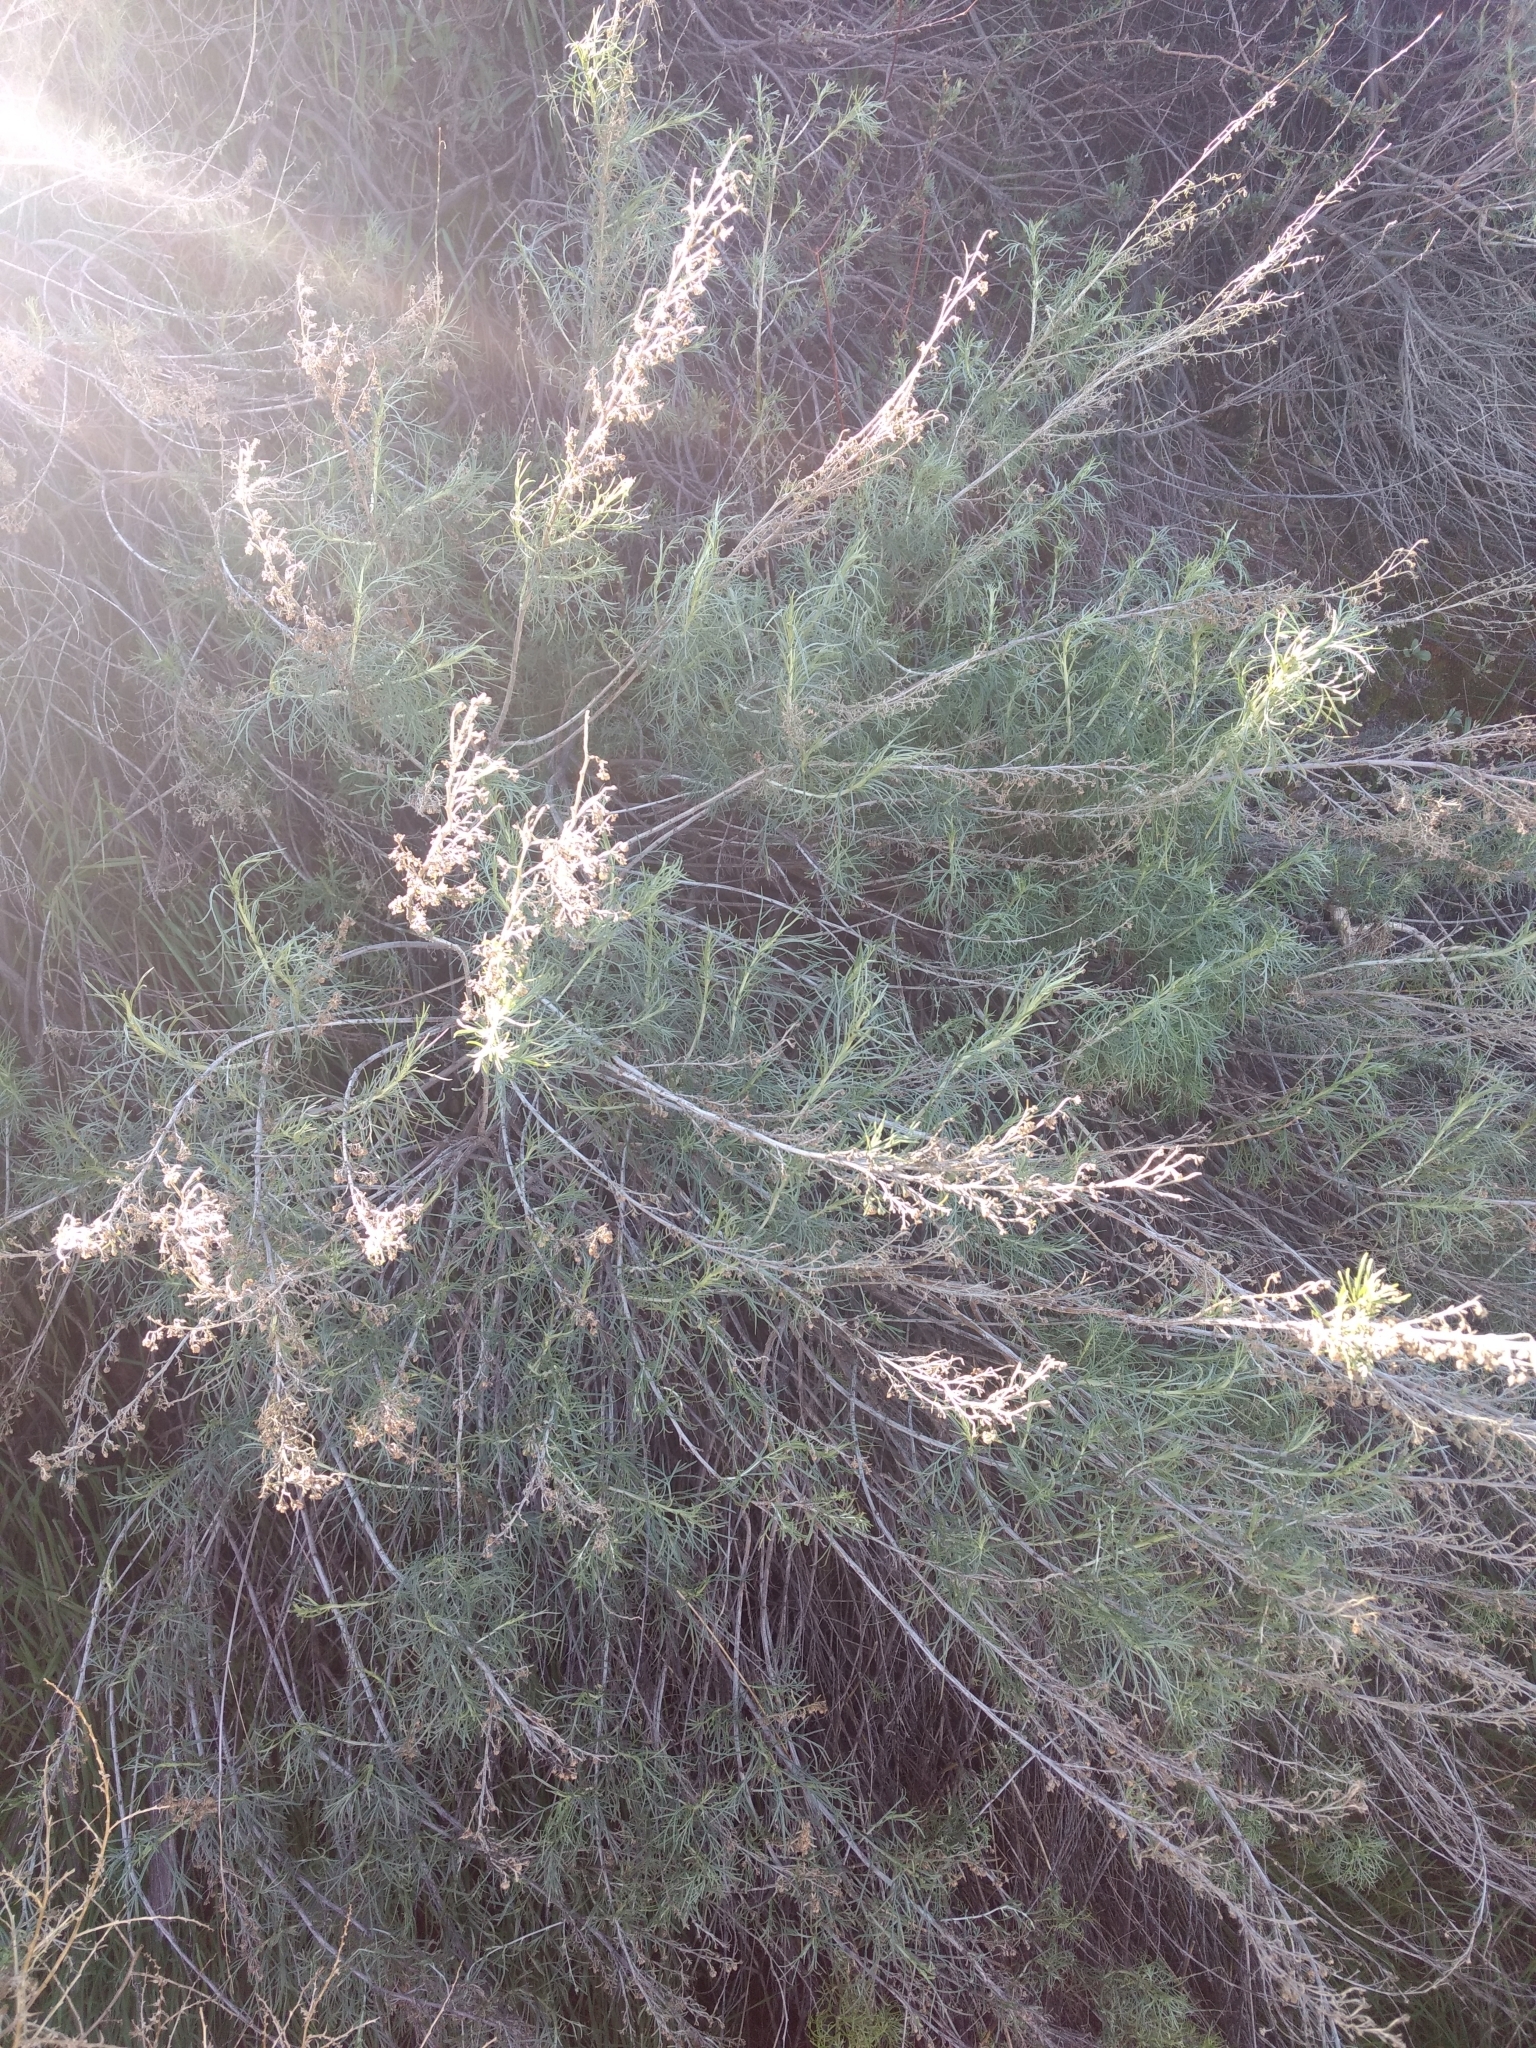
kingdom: Plantae
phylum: Tracheophyta
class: Magnoliopsida
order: Asterales
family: Asteraceae
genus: Artemisia
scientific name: Artemisia californica
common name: California sagebrush
